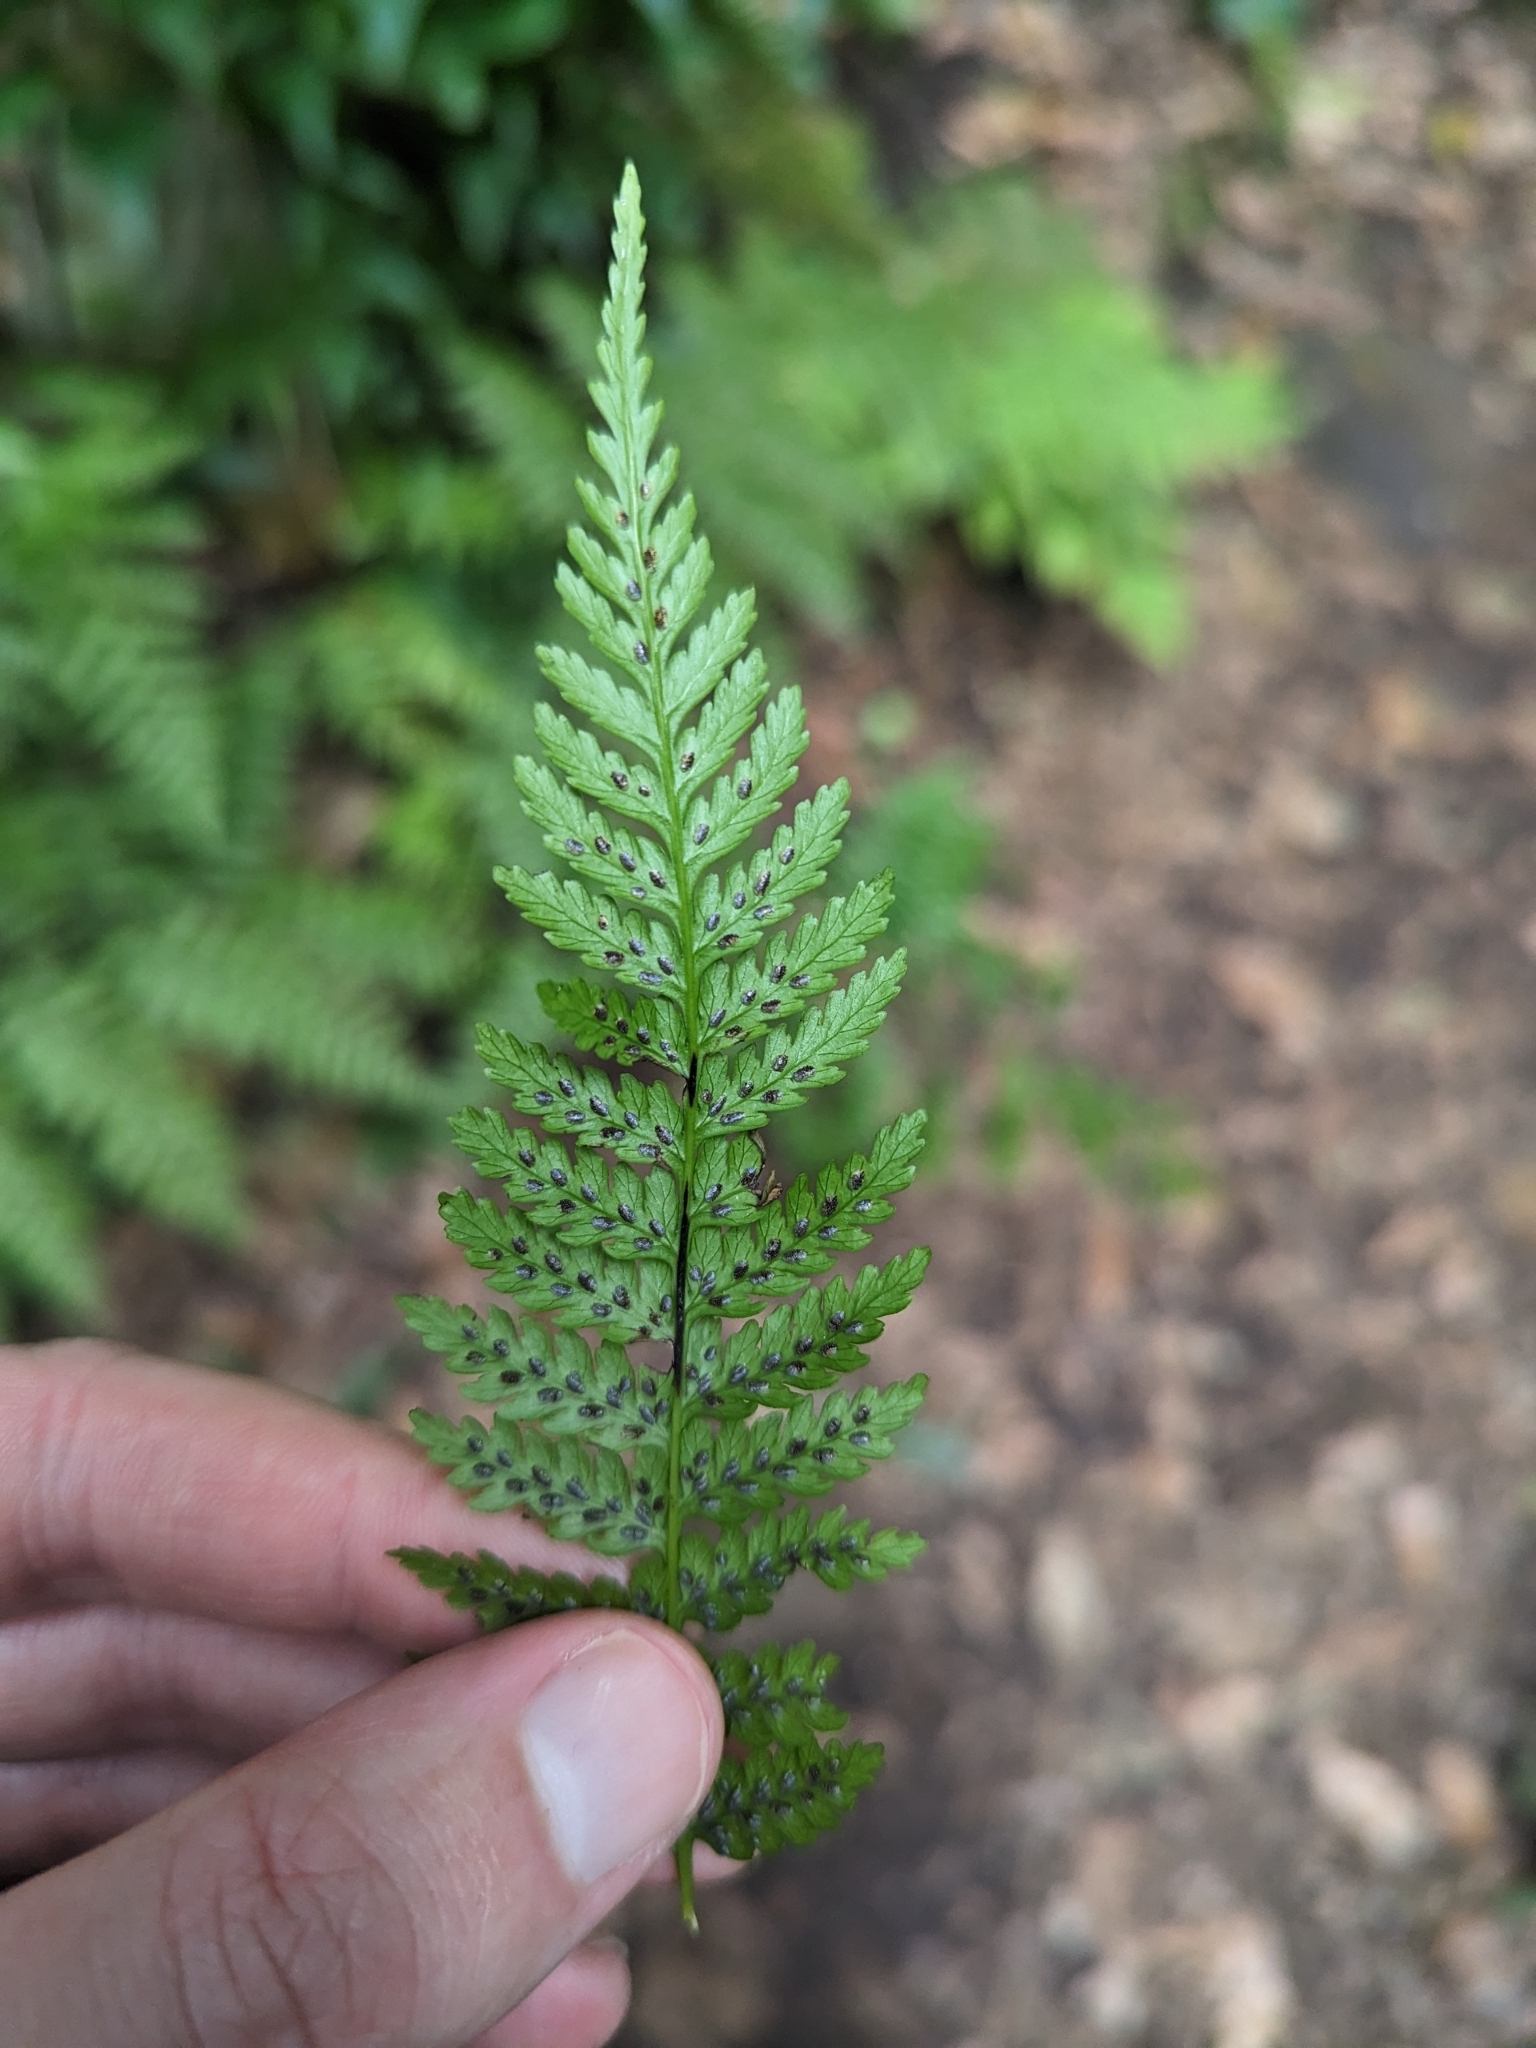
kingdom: Plantae
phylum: Tracheophyta
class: Polypodiopsida
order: Polypodiales
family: Athyriaceae
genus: Diplazium
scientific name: Diplazium caudatum
